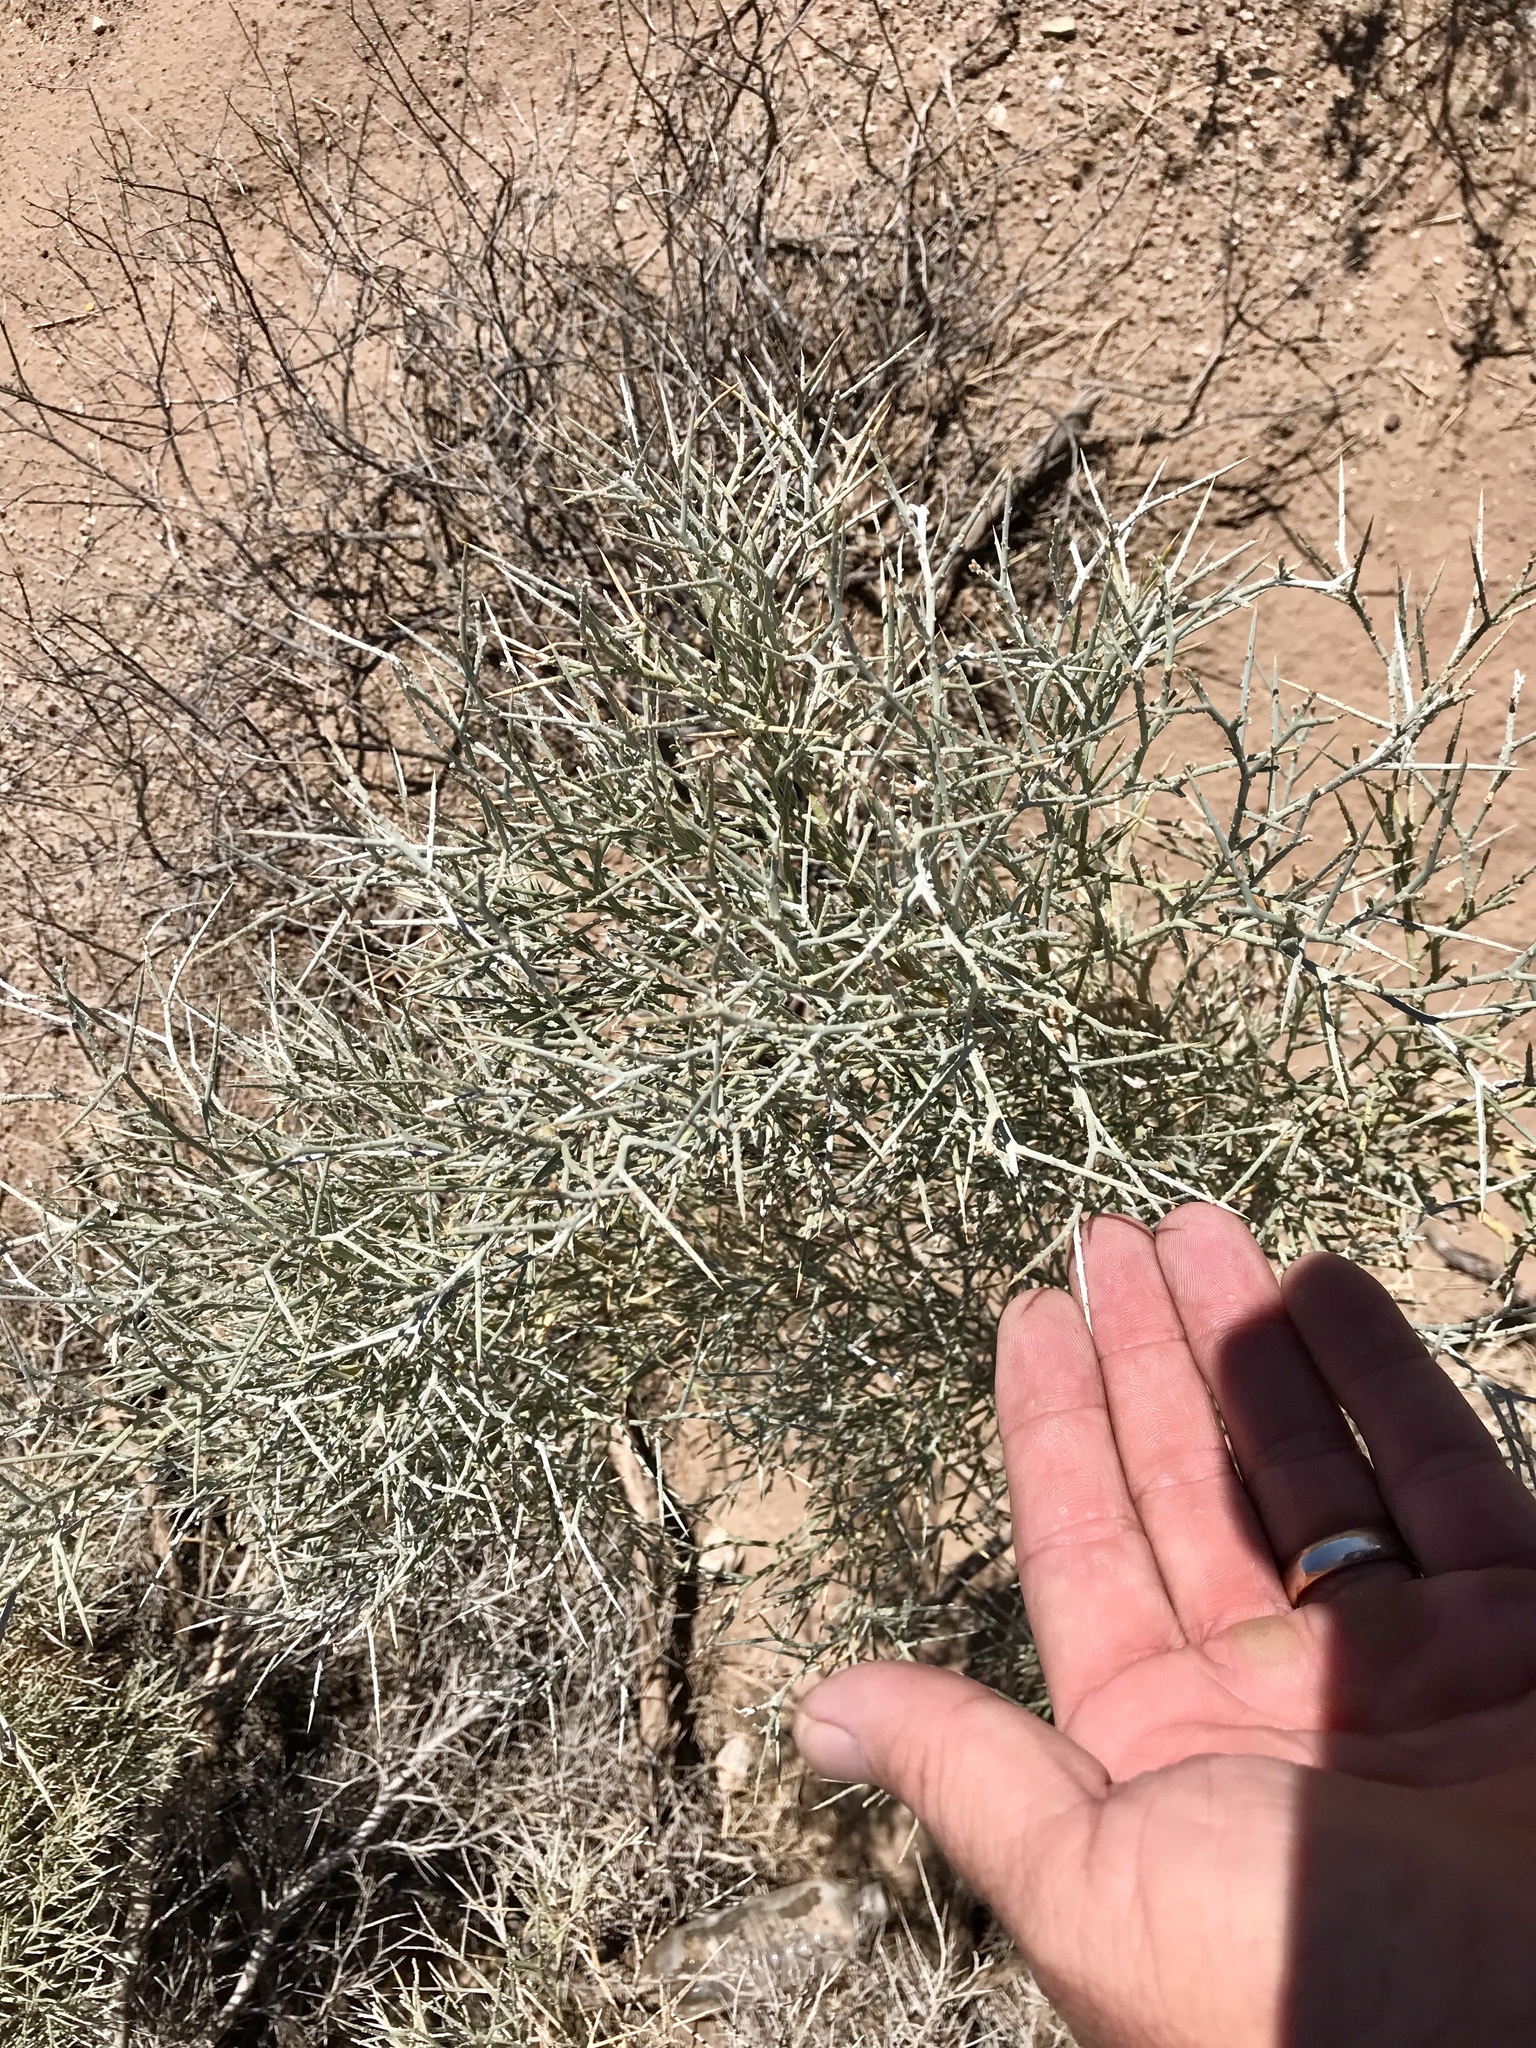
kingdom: Plantae
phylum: Tracheophyta
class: Magnoliopsida
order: Fabales
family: Fabaceae
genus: Psorothamnus
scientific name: Psorothamnus spinosus
